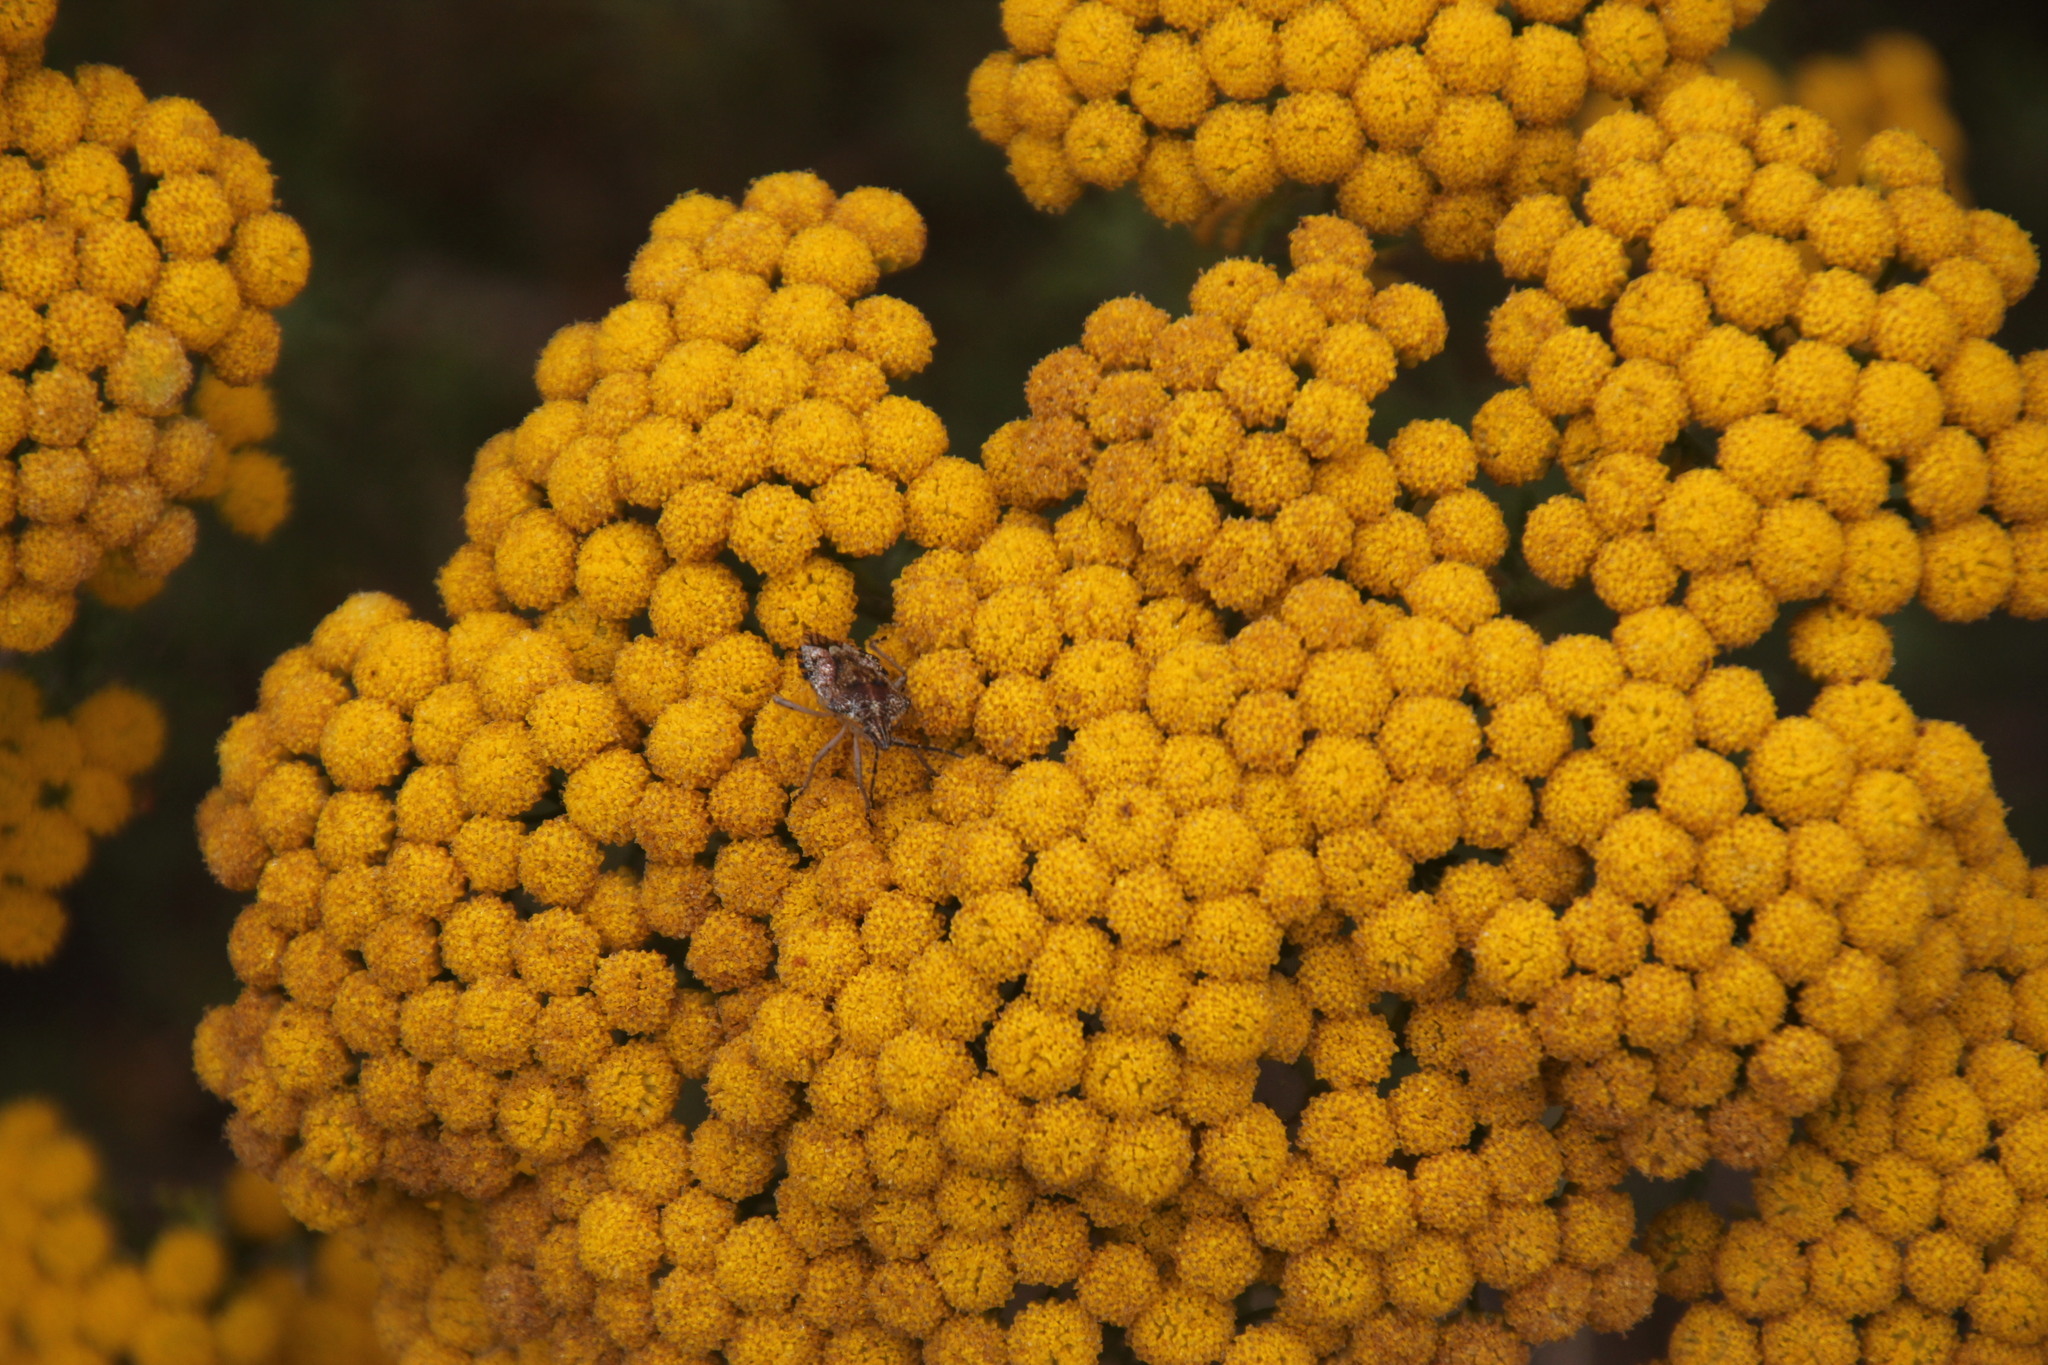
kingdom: Plantae
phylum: Tracheophyta
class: Magnoliopsida
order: Asterales
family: Asteraceae
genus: Oncosiphon
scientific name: Oncosiphon suffruticosus
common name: Shrubby mayweed
